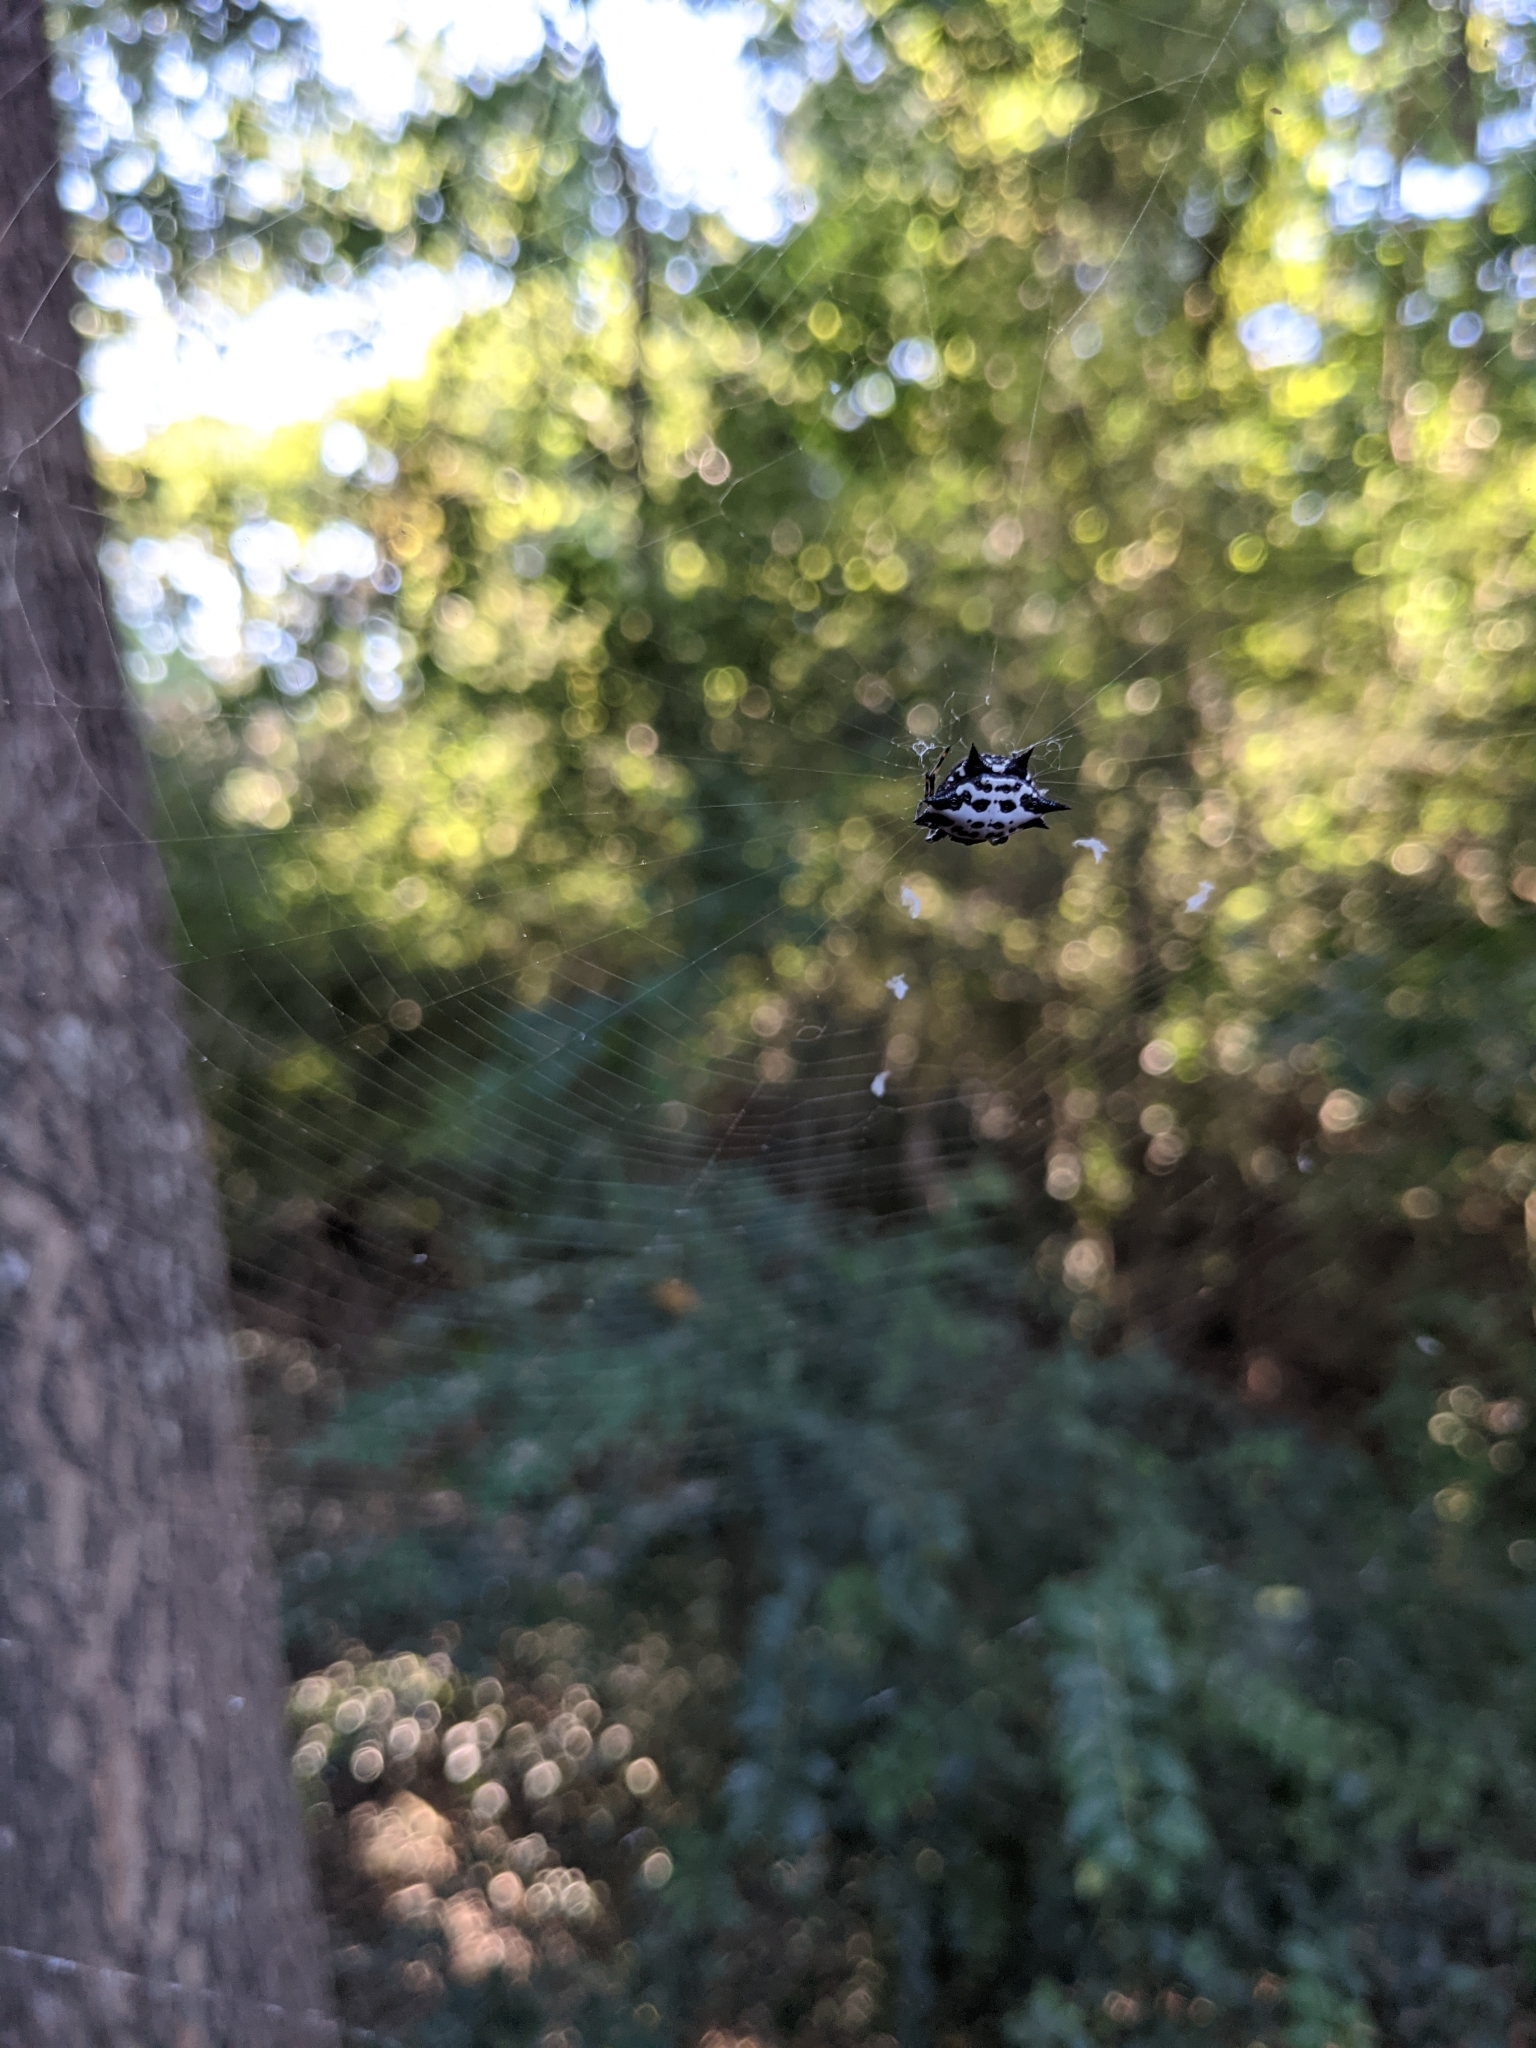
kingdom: Animalia
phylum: Arthropoda
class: Arachnida
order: Araneae
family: Araneidae
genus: Gasteracantha
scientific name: Gasteracantha cancriformis
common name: Orb weavers
